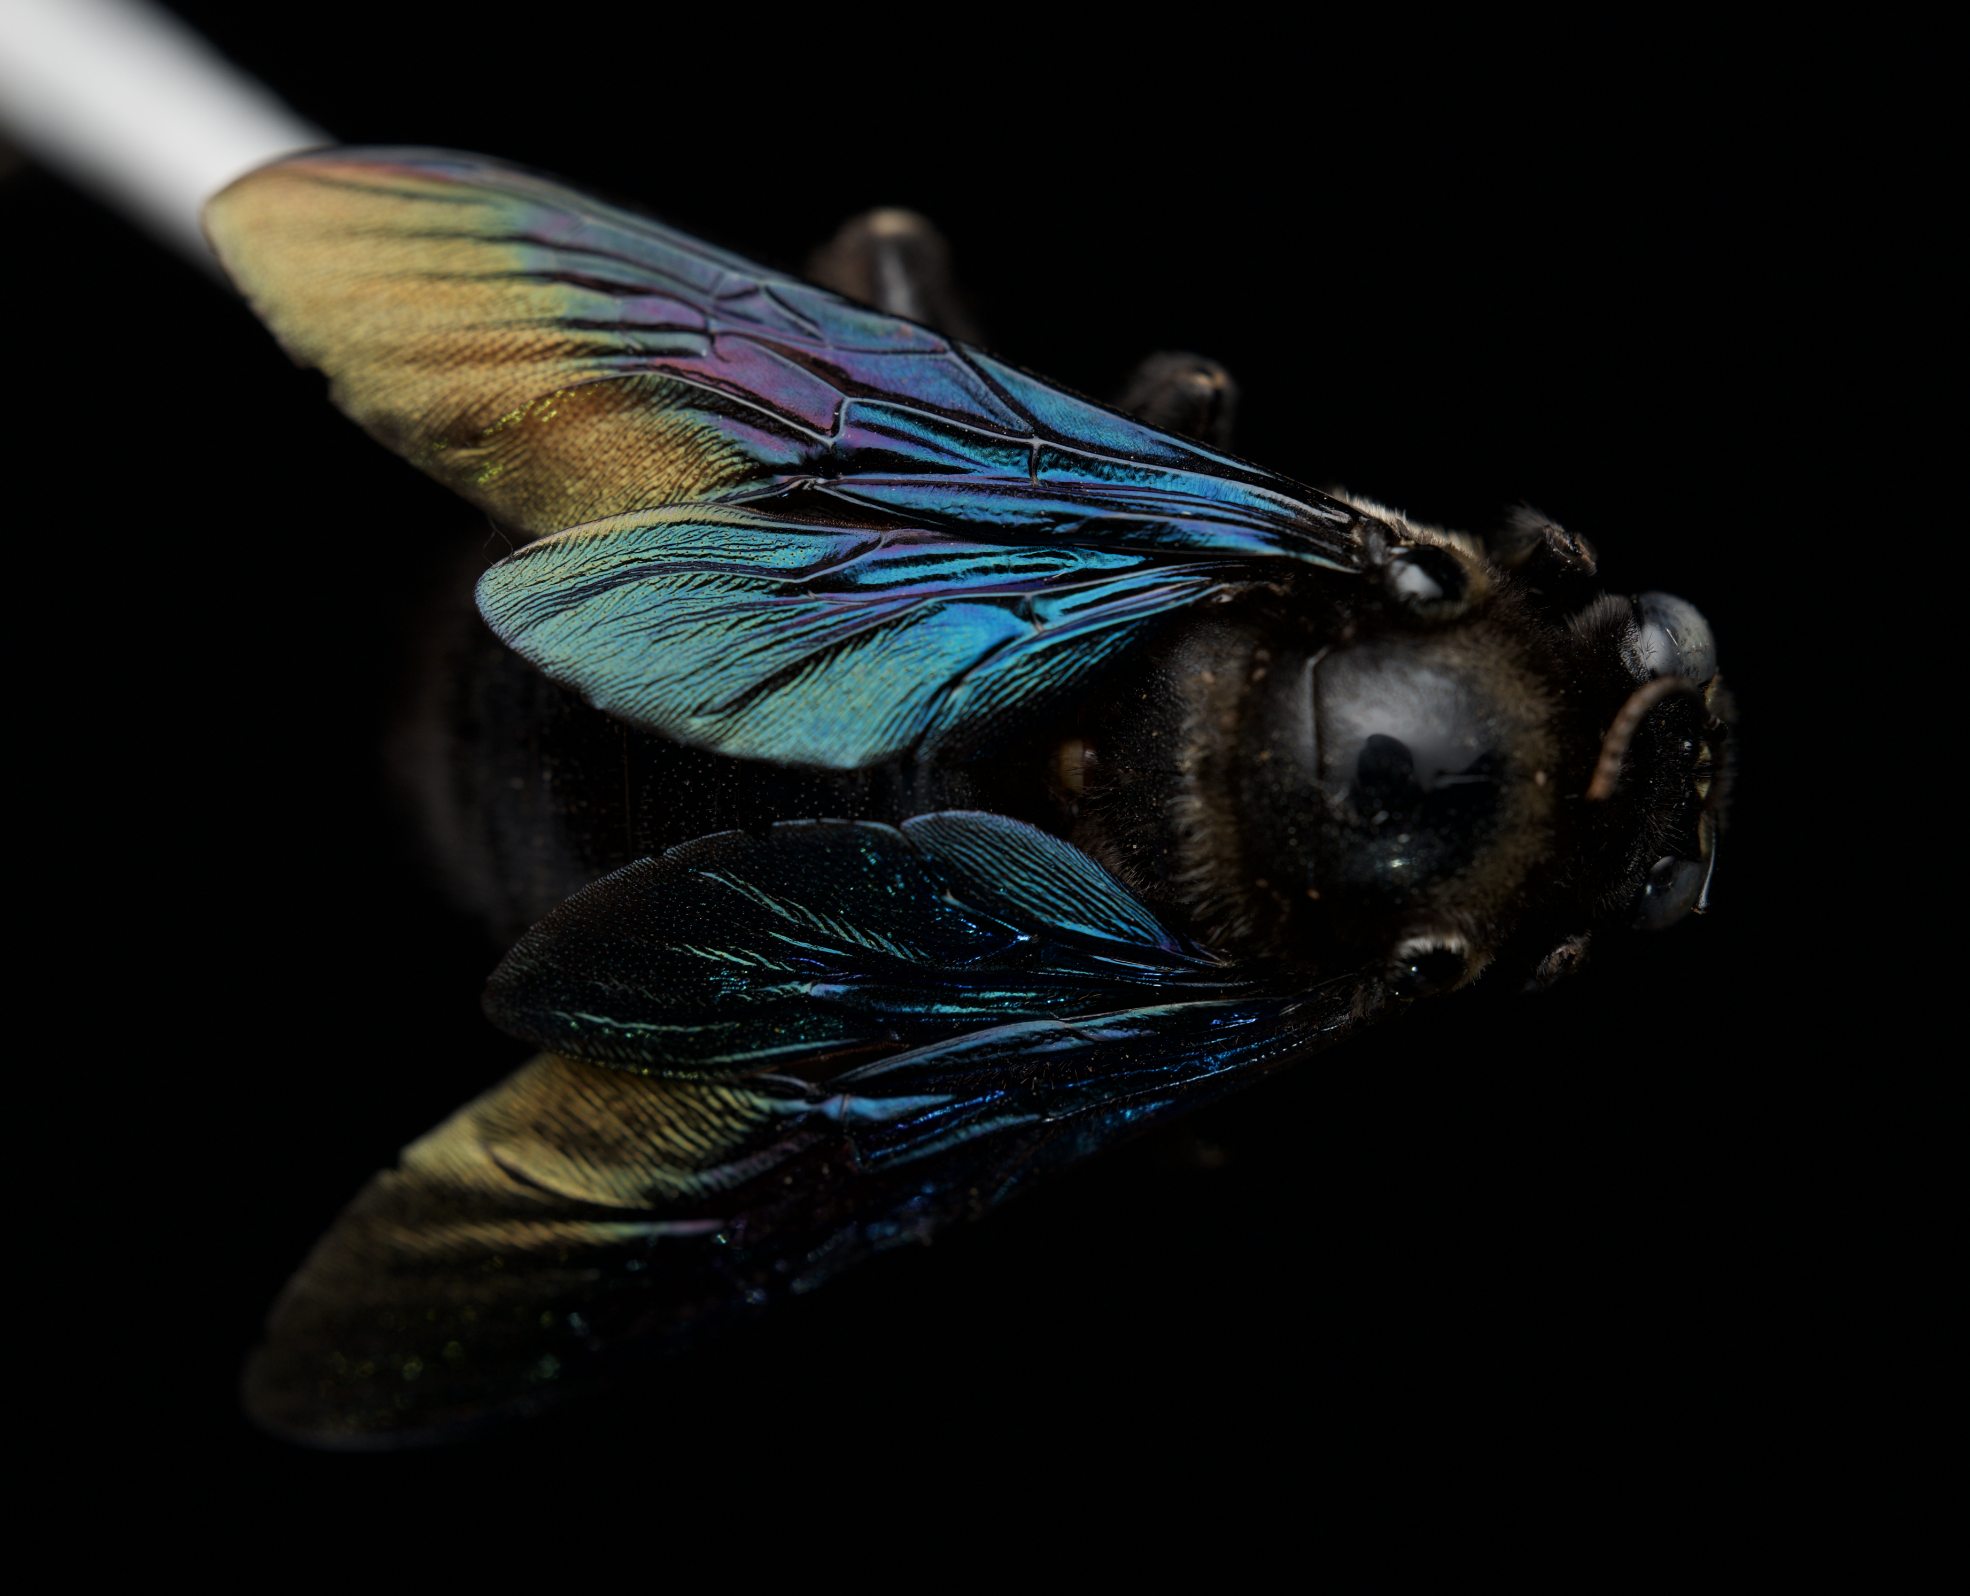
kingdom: Animalia
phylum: Arthropoda
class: Insecta
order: Hymenoptera
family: Apidae
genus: Xylocopa
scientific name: Xylocopa nasalis
